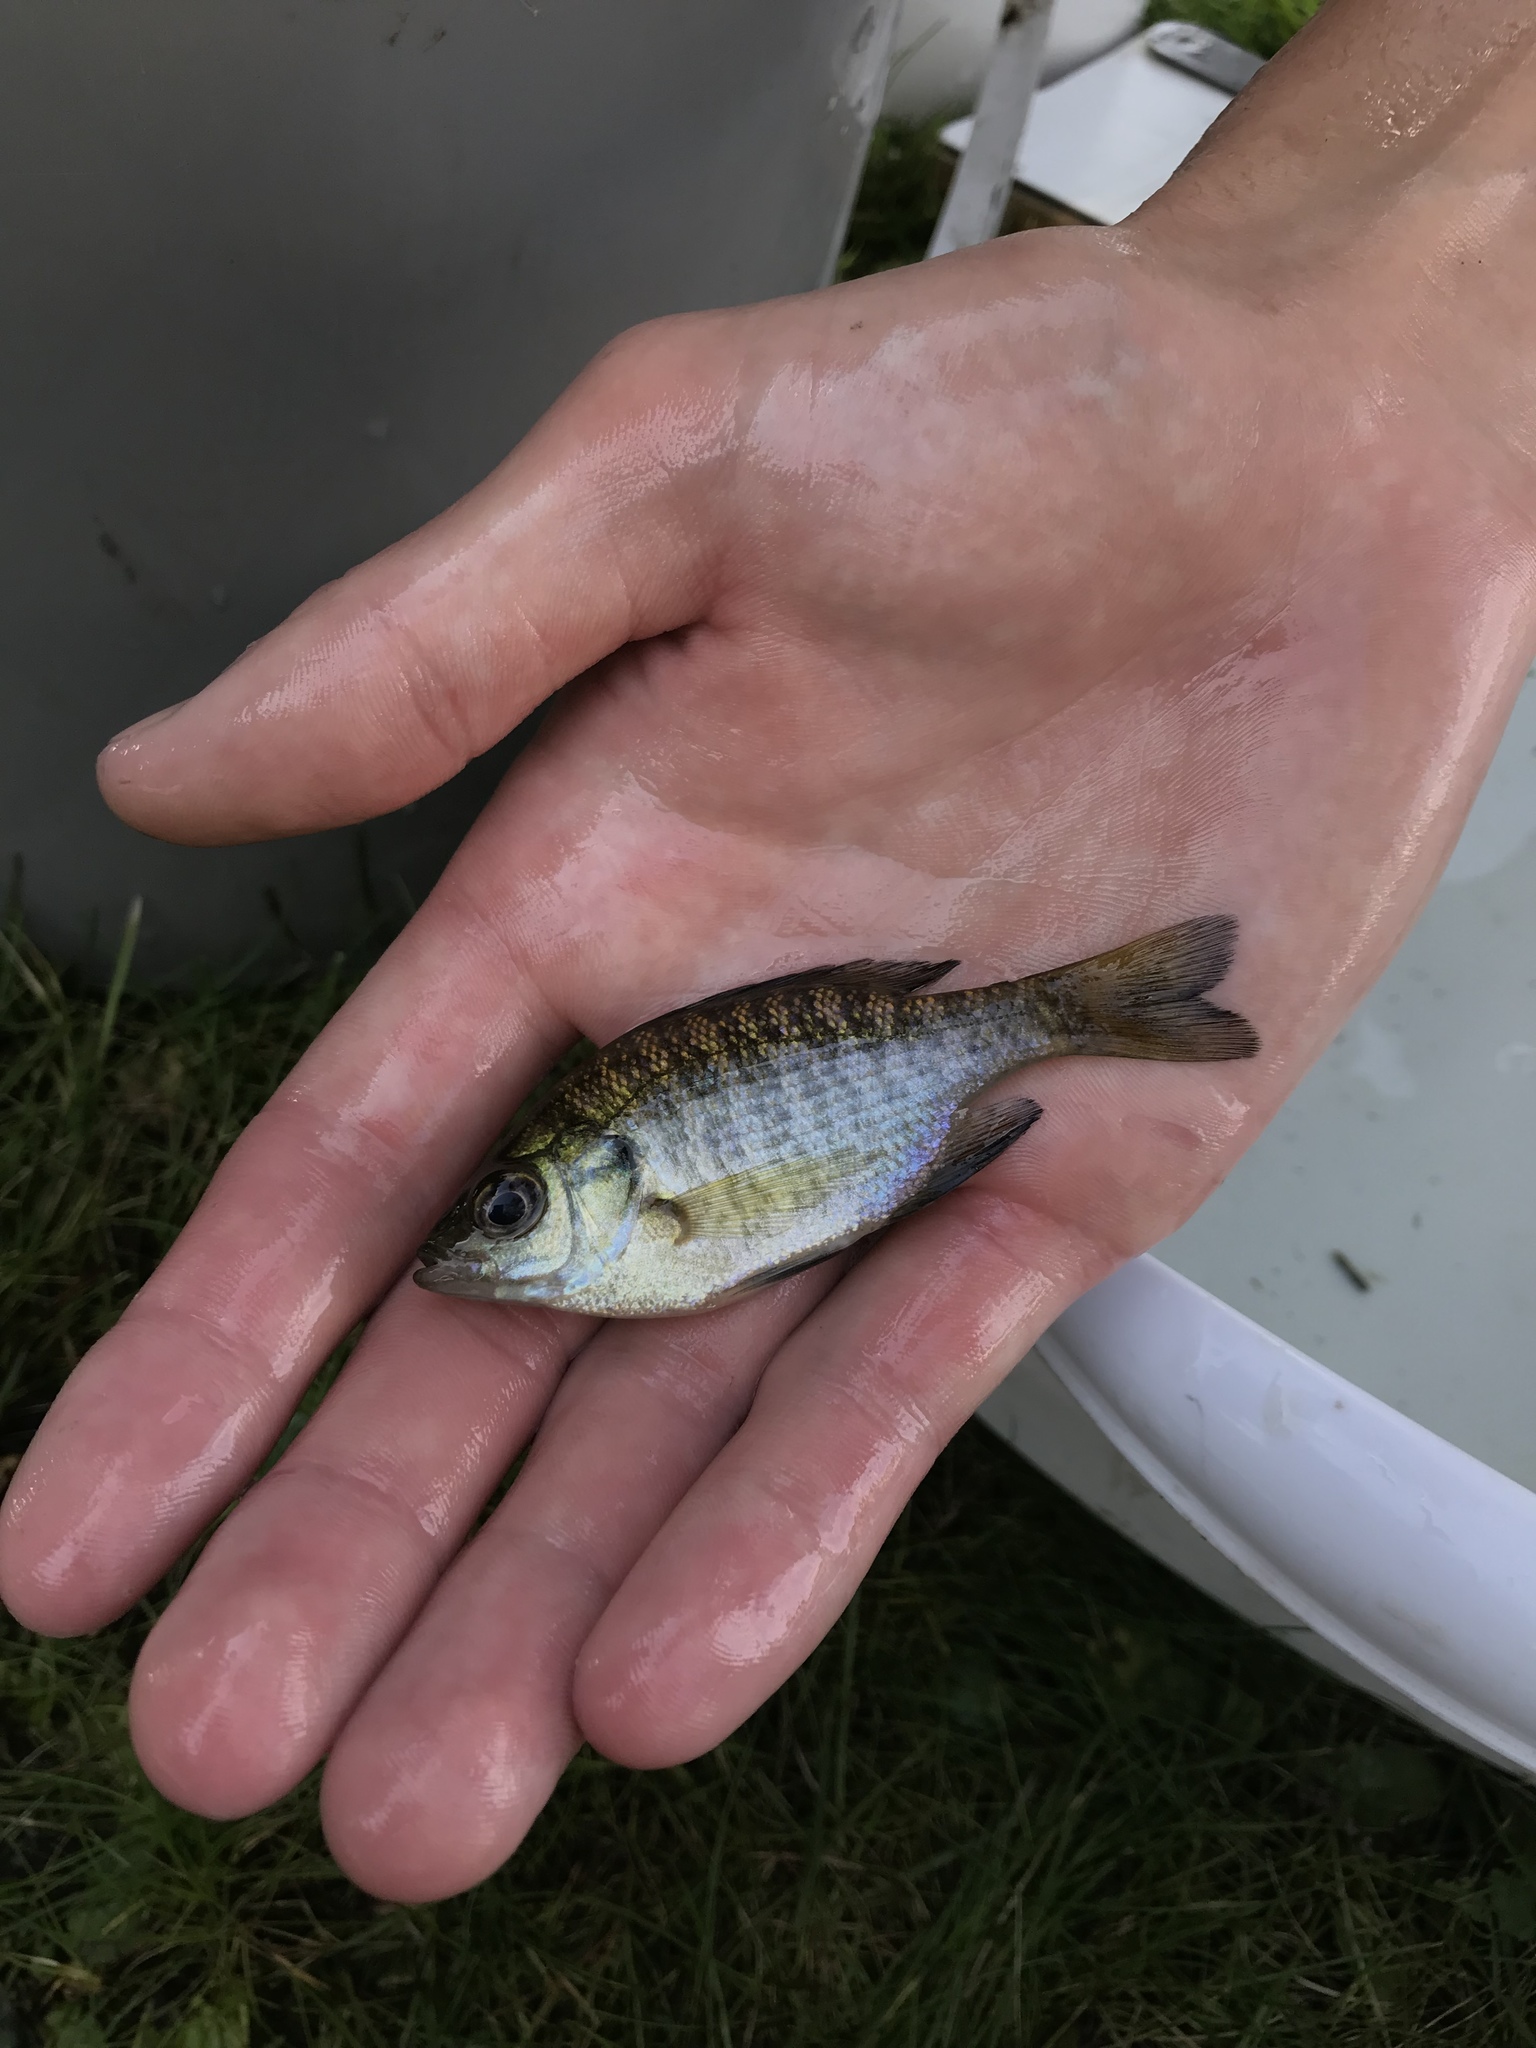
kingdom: Animalia
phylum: Chordata
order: Perciformes
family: Centrarchidae
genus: Lepomis
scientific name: Lepomis macrochirus
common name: Bluegill
